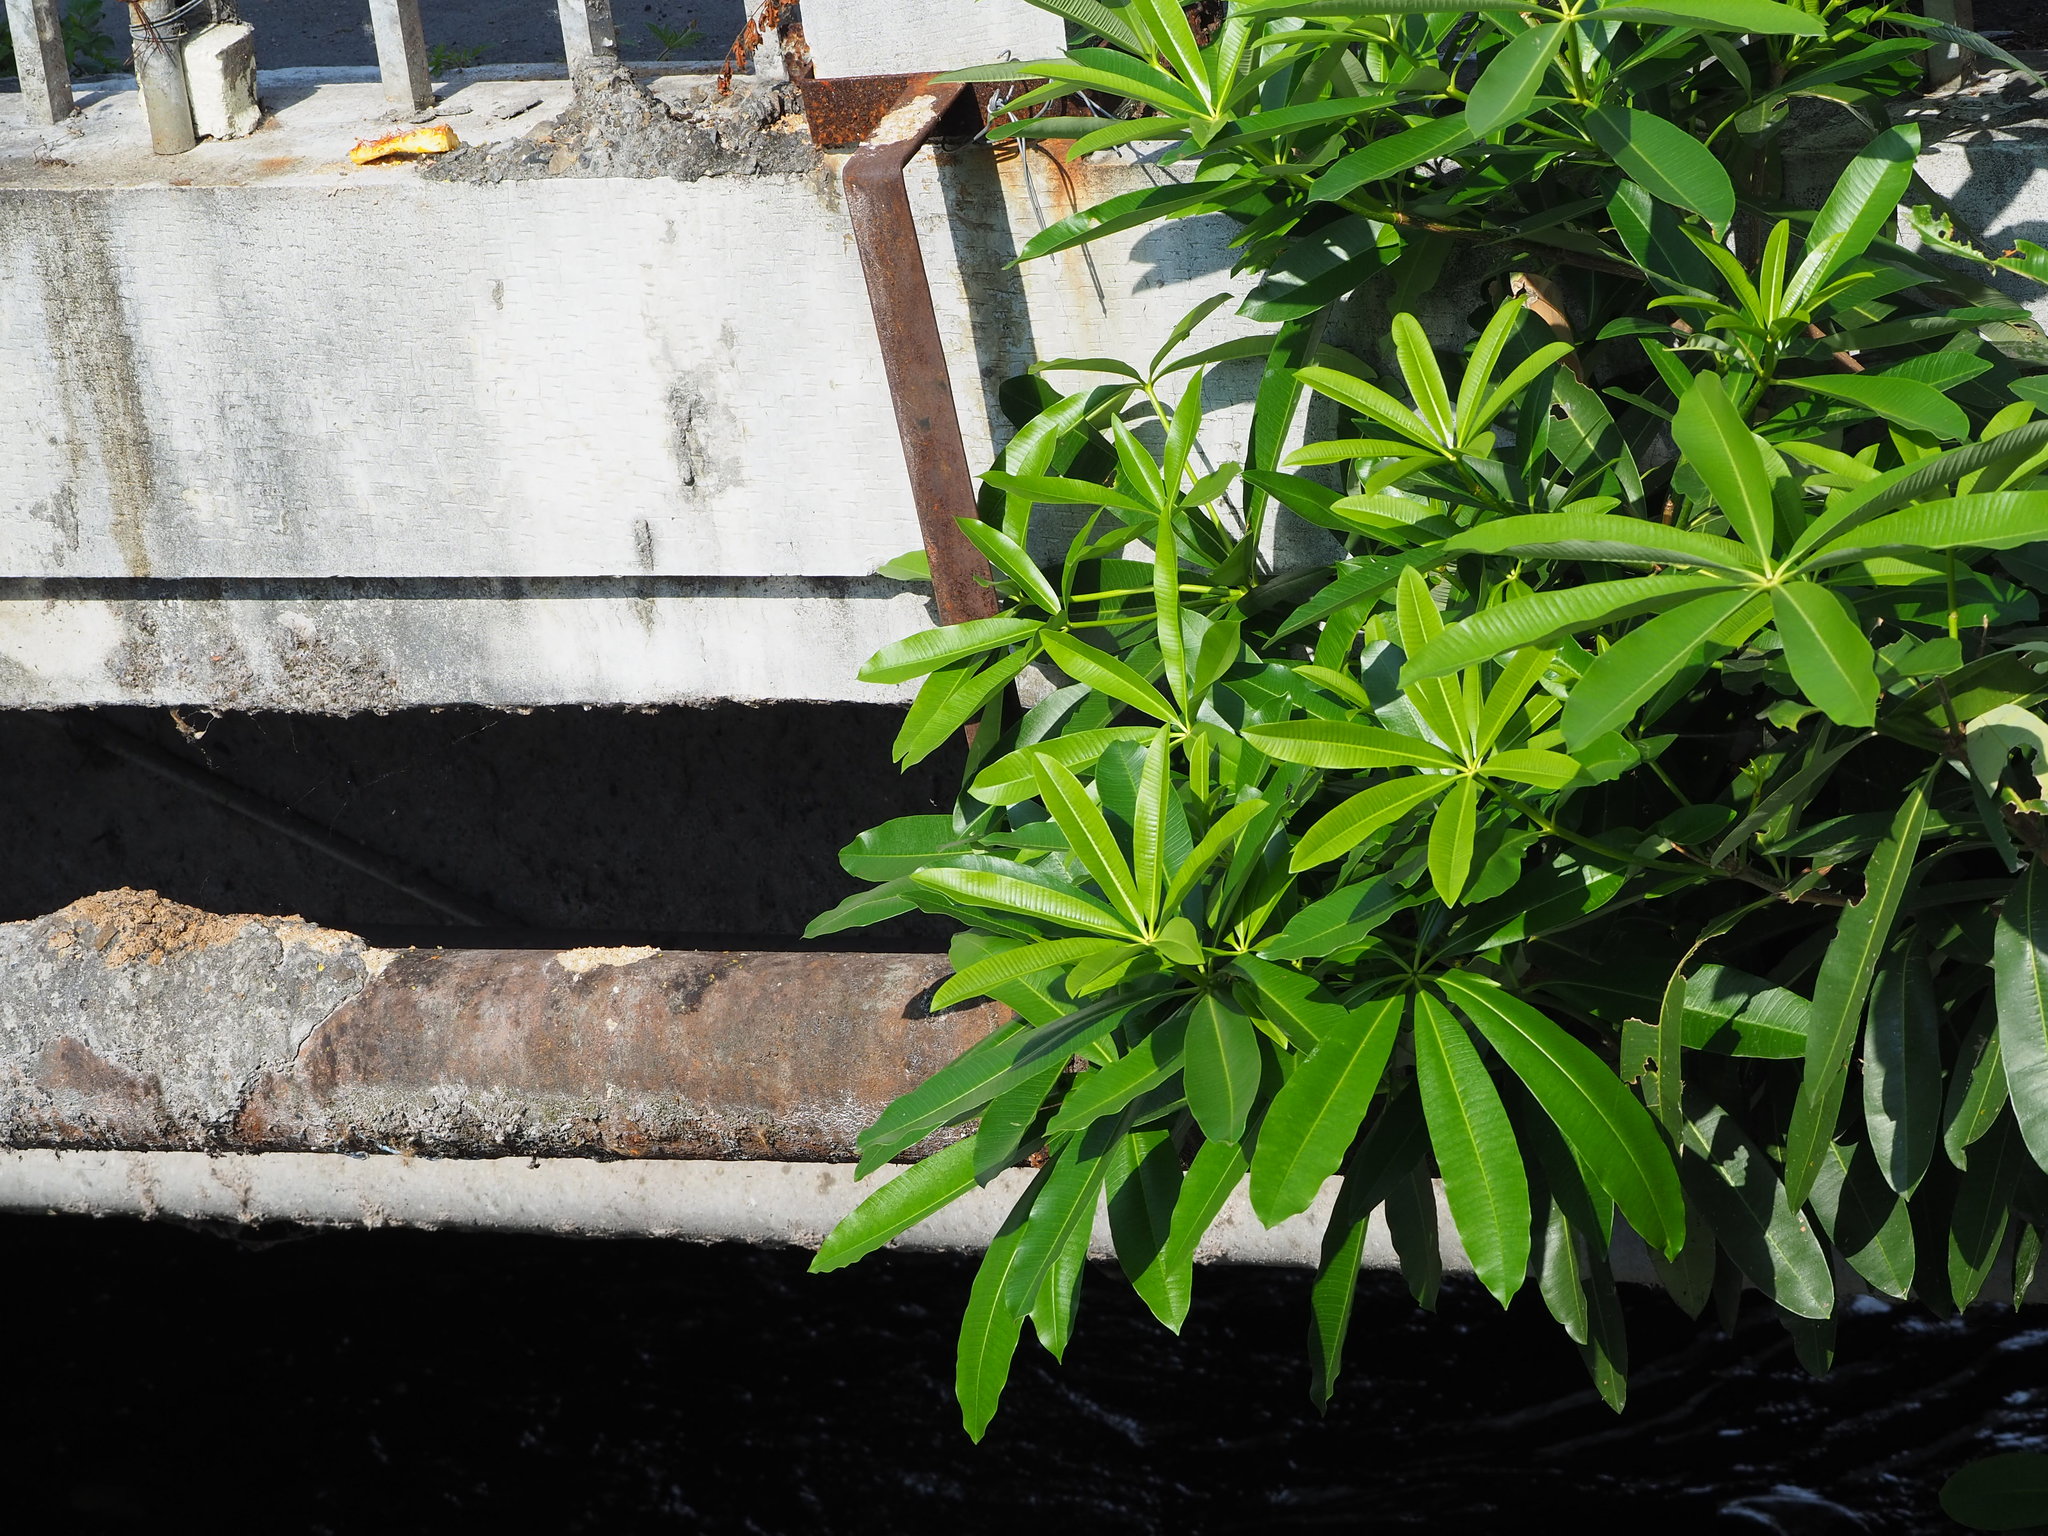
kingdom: Plantae
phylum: Tracheophyta
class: Magnoliopsida
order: Gentianales
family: Apocynaceae
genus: Alstonia
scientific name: Alstonia scholaris
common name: White cheesewood
